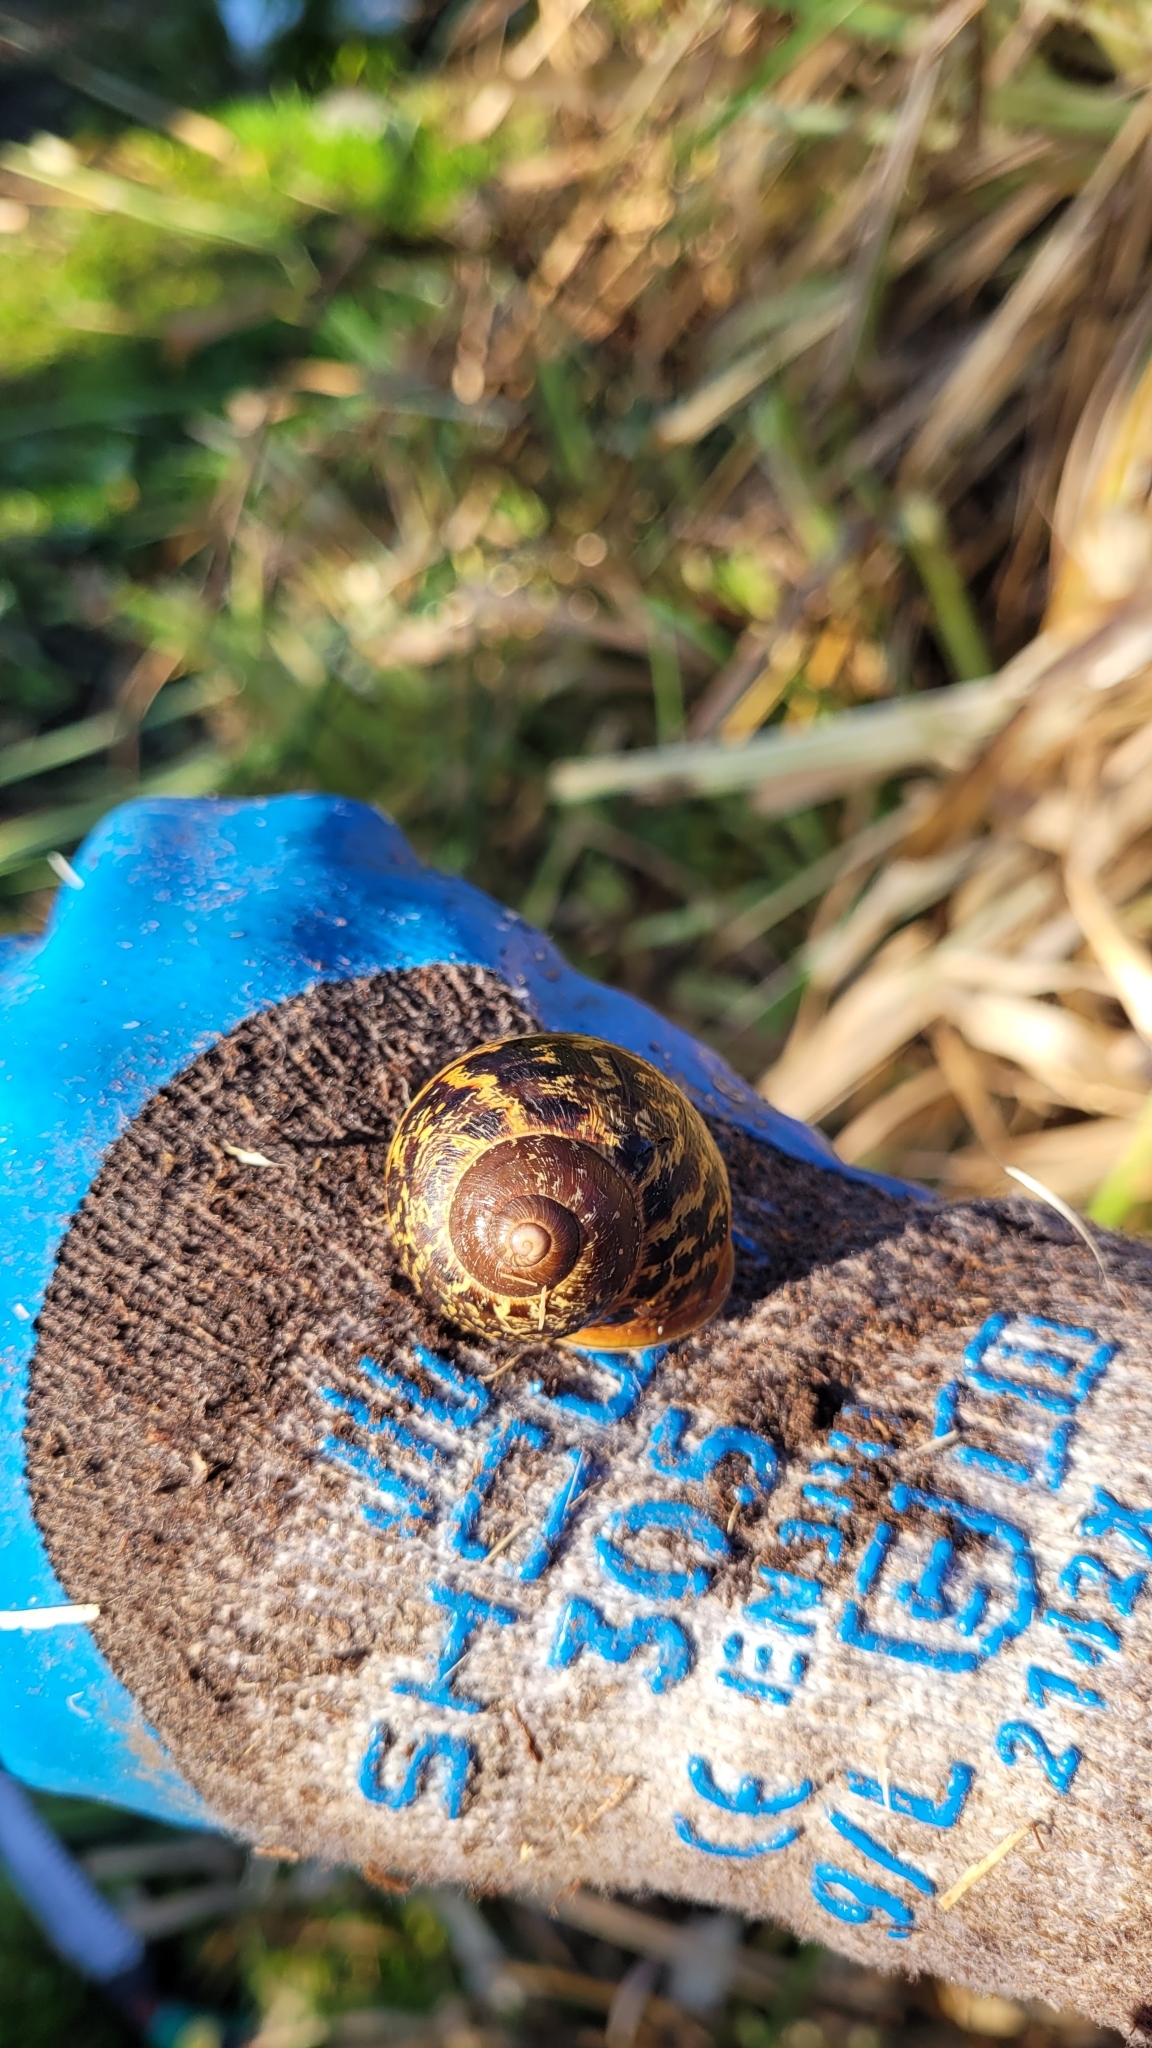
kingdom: Animalia
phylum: Mollusca
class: Gastropoda
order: Stylommatophora
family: Helicidae
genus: Cornu
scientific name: Cornu aspersum
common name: Brown garden snail
